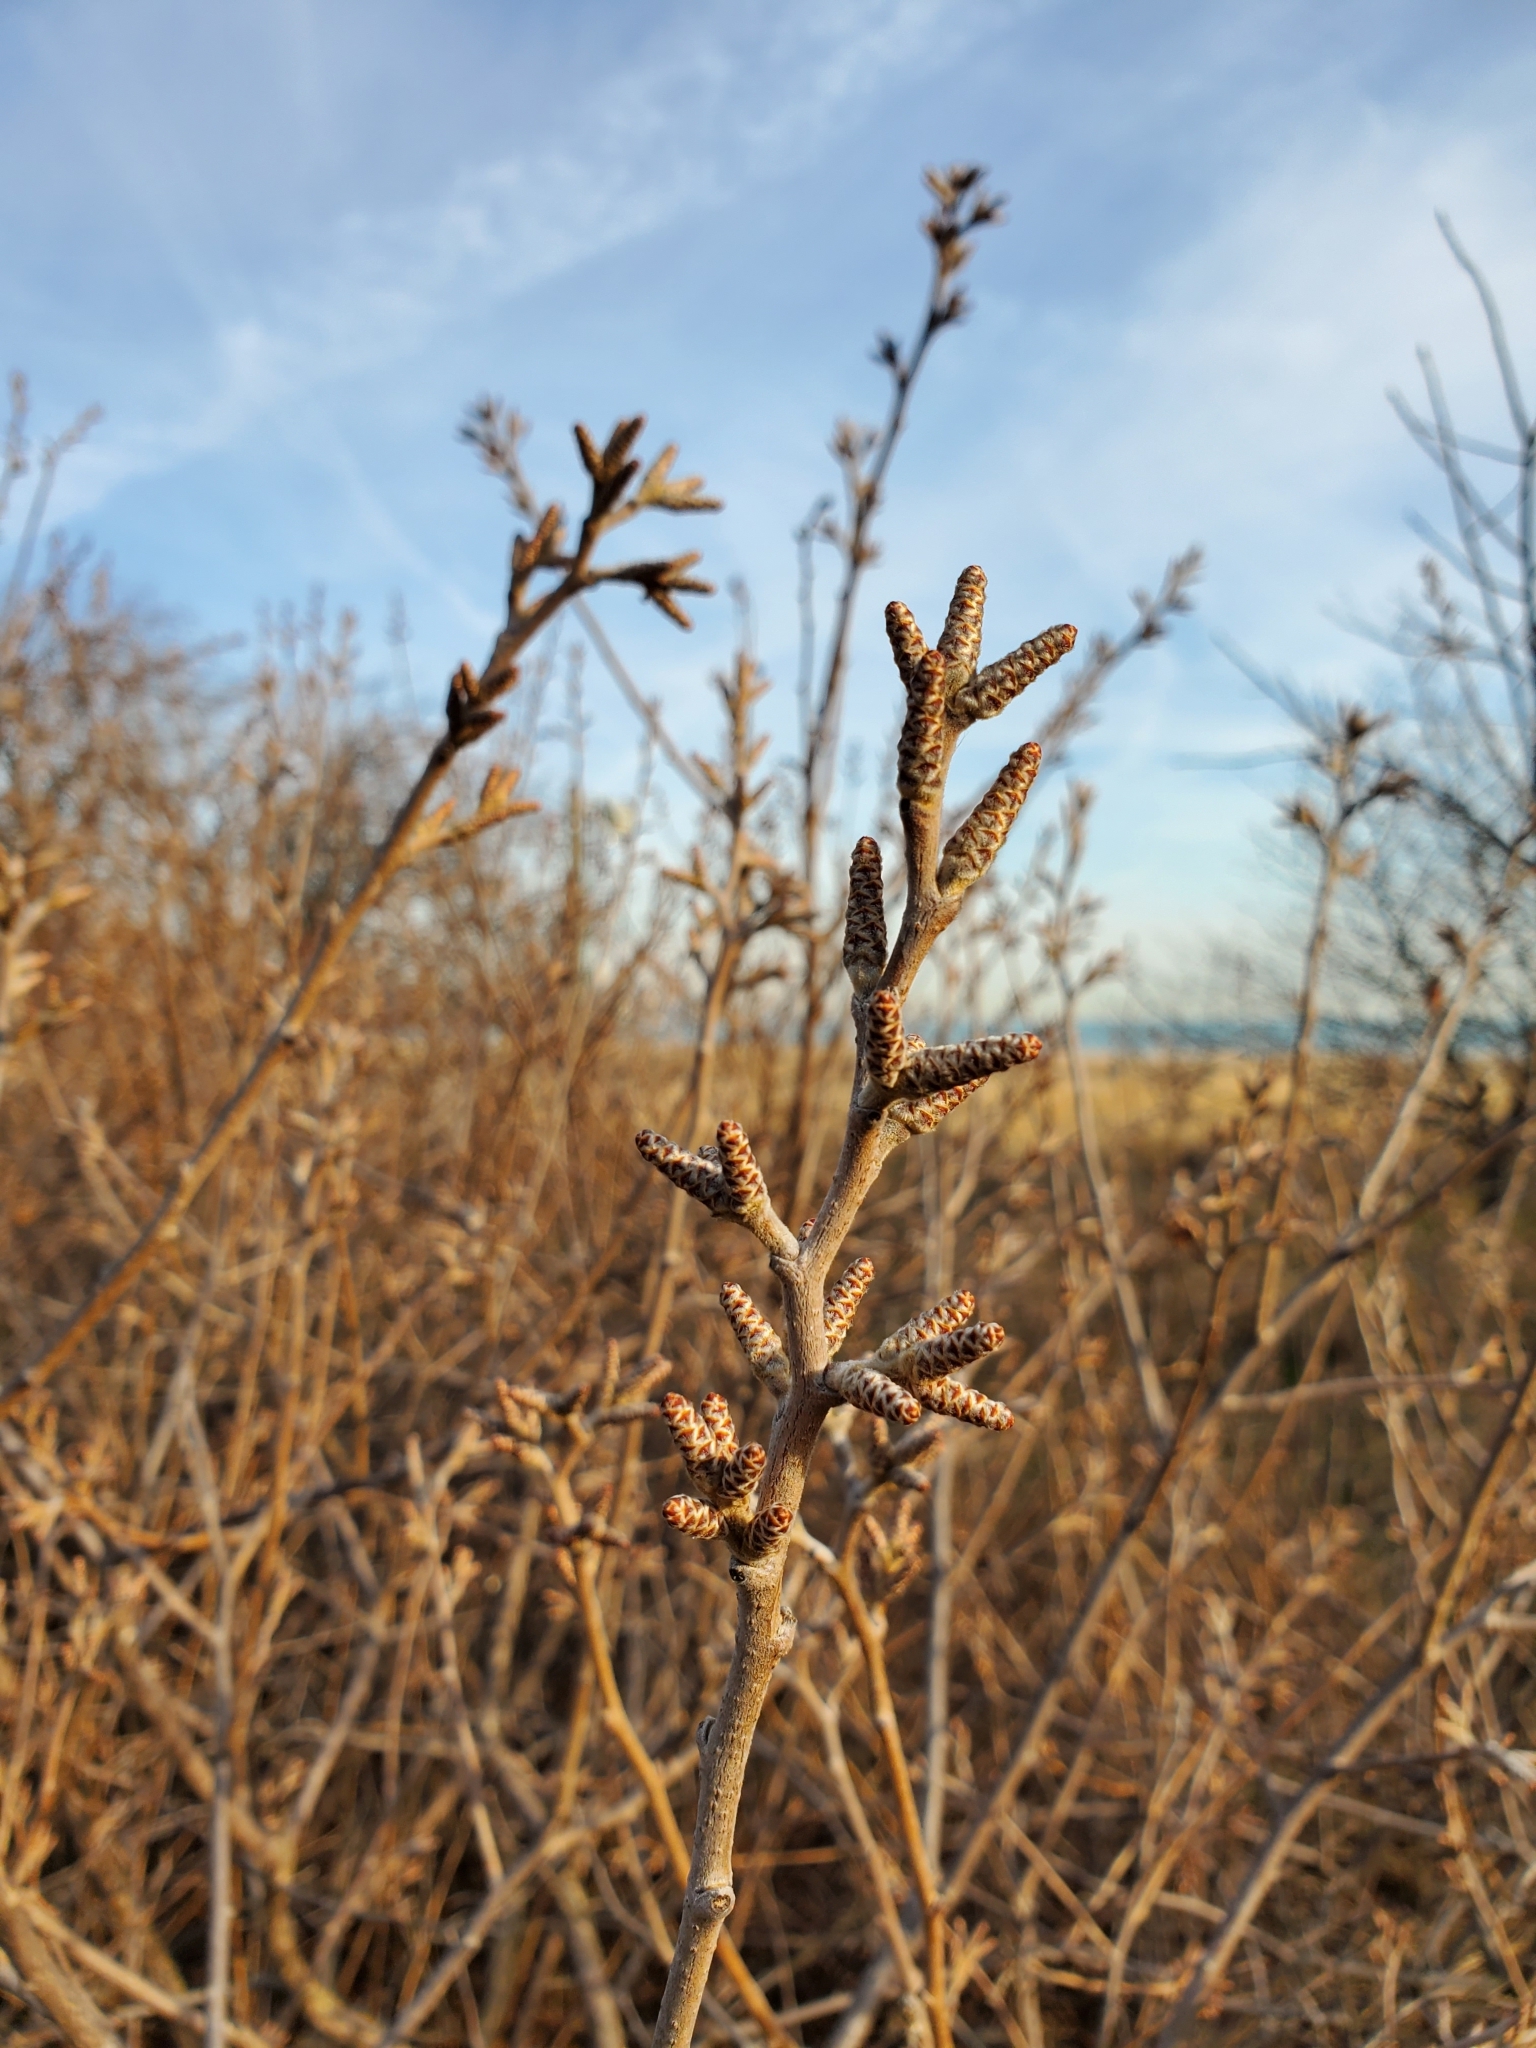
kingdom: Plantae
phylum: Tracheophyta
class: Magnoliopsida
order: Sapindales
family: Anacardiaceae
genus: Rhus
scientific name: Rhus aromatica
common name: Aromatic sumac
